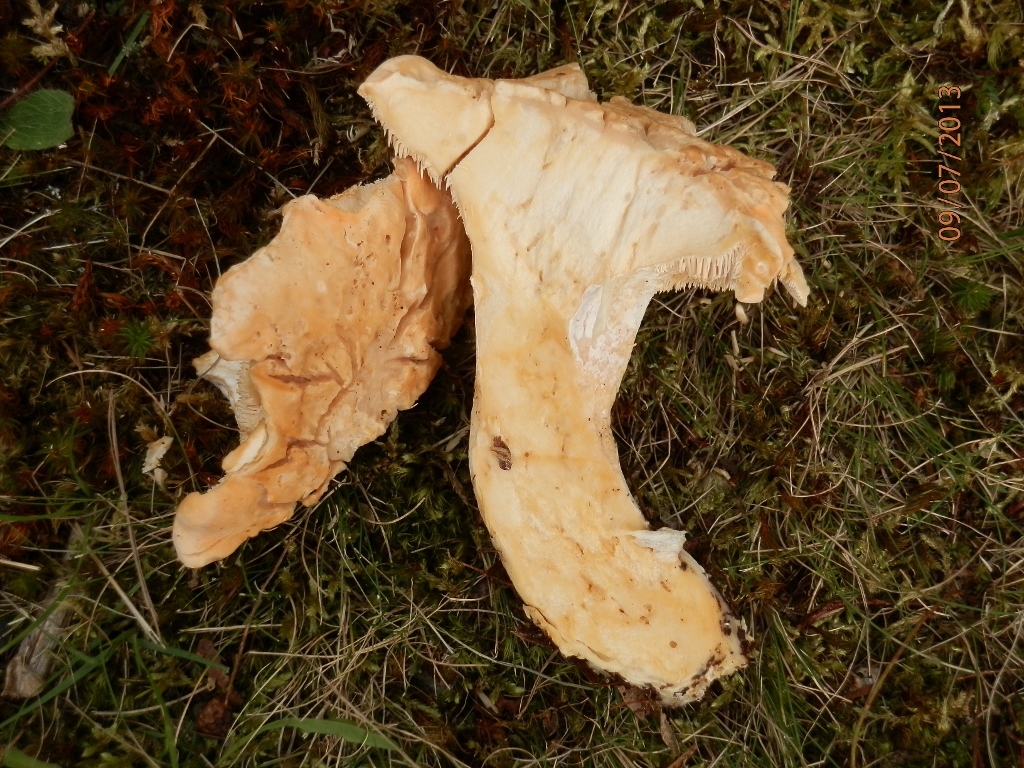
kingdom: Fungi
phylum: Basidiomycota
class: Agaricomycetes
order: Cantharellales
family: Hydnaceae
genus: Hydnum
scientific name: Hydnum subolympicum
